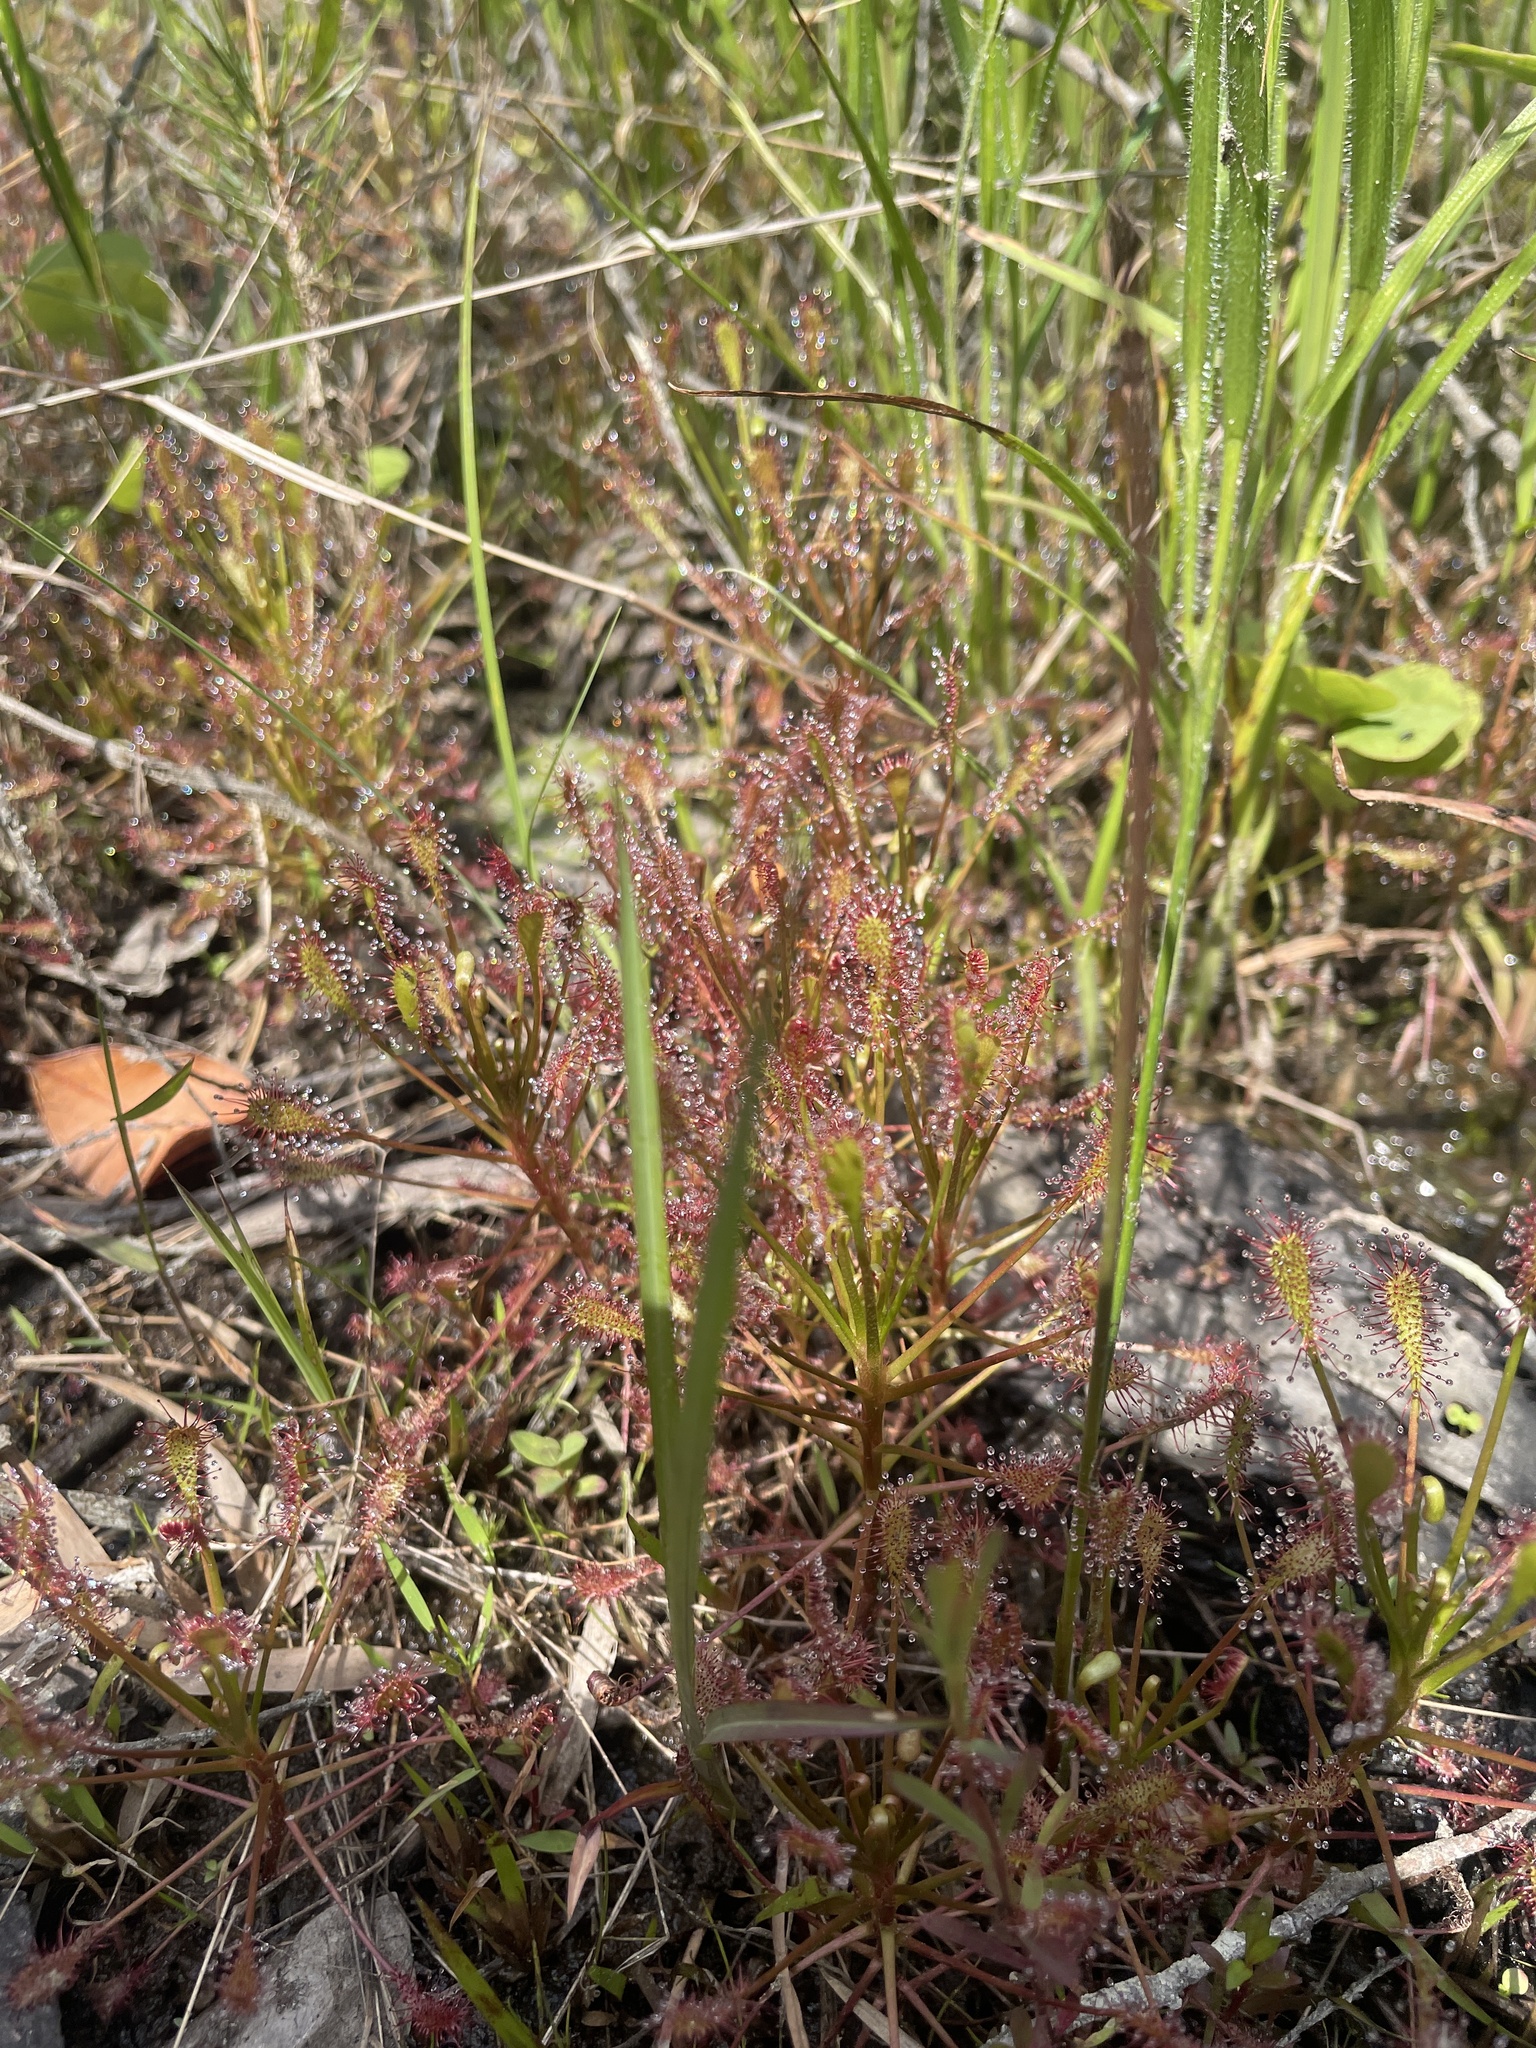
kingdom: Plantae
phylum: Tracheophyta
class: Magnoliopsida
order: Caryophyllales
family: Droseraceae
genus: Drosera
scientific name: Drosera intermedia
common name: Oblong-leaved sundew
